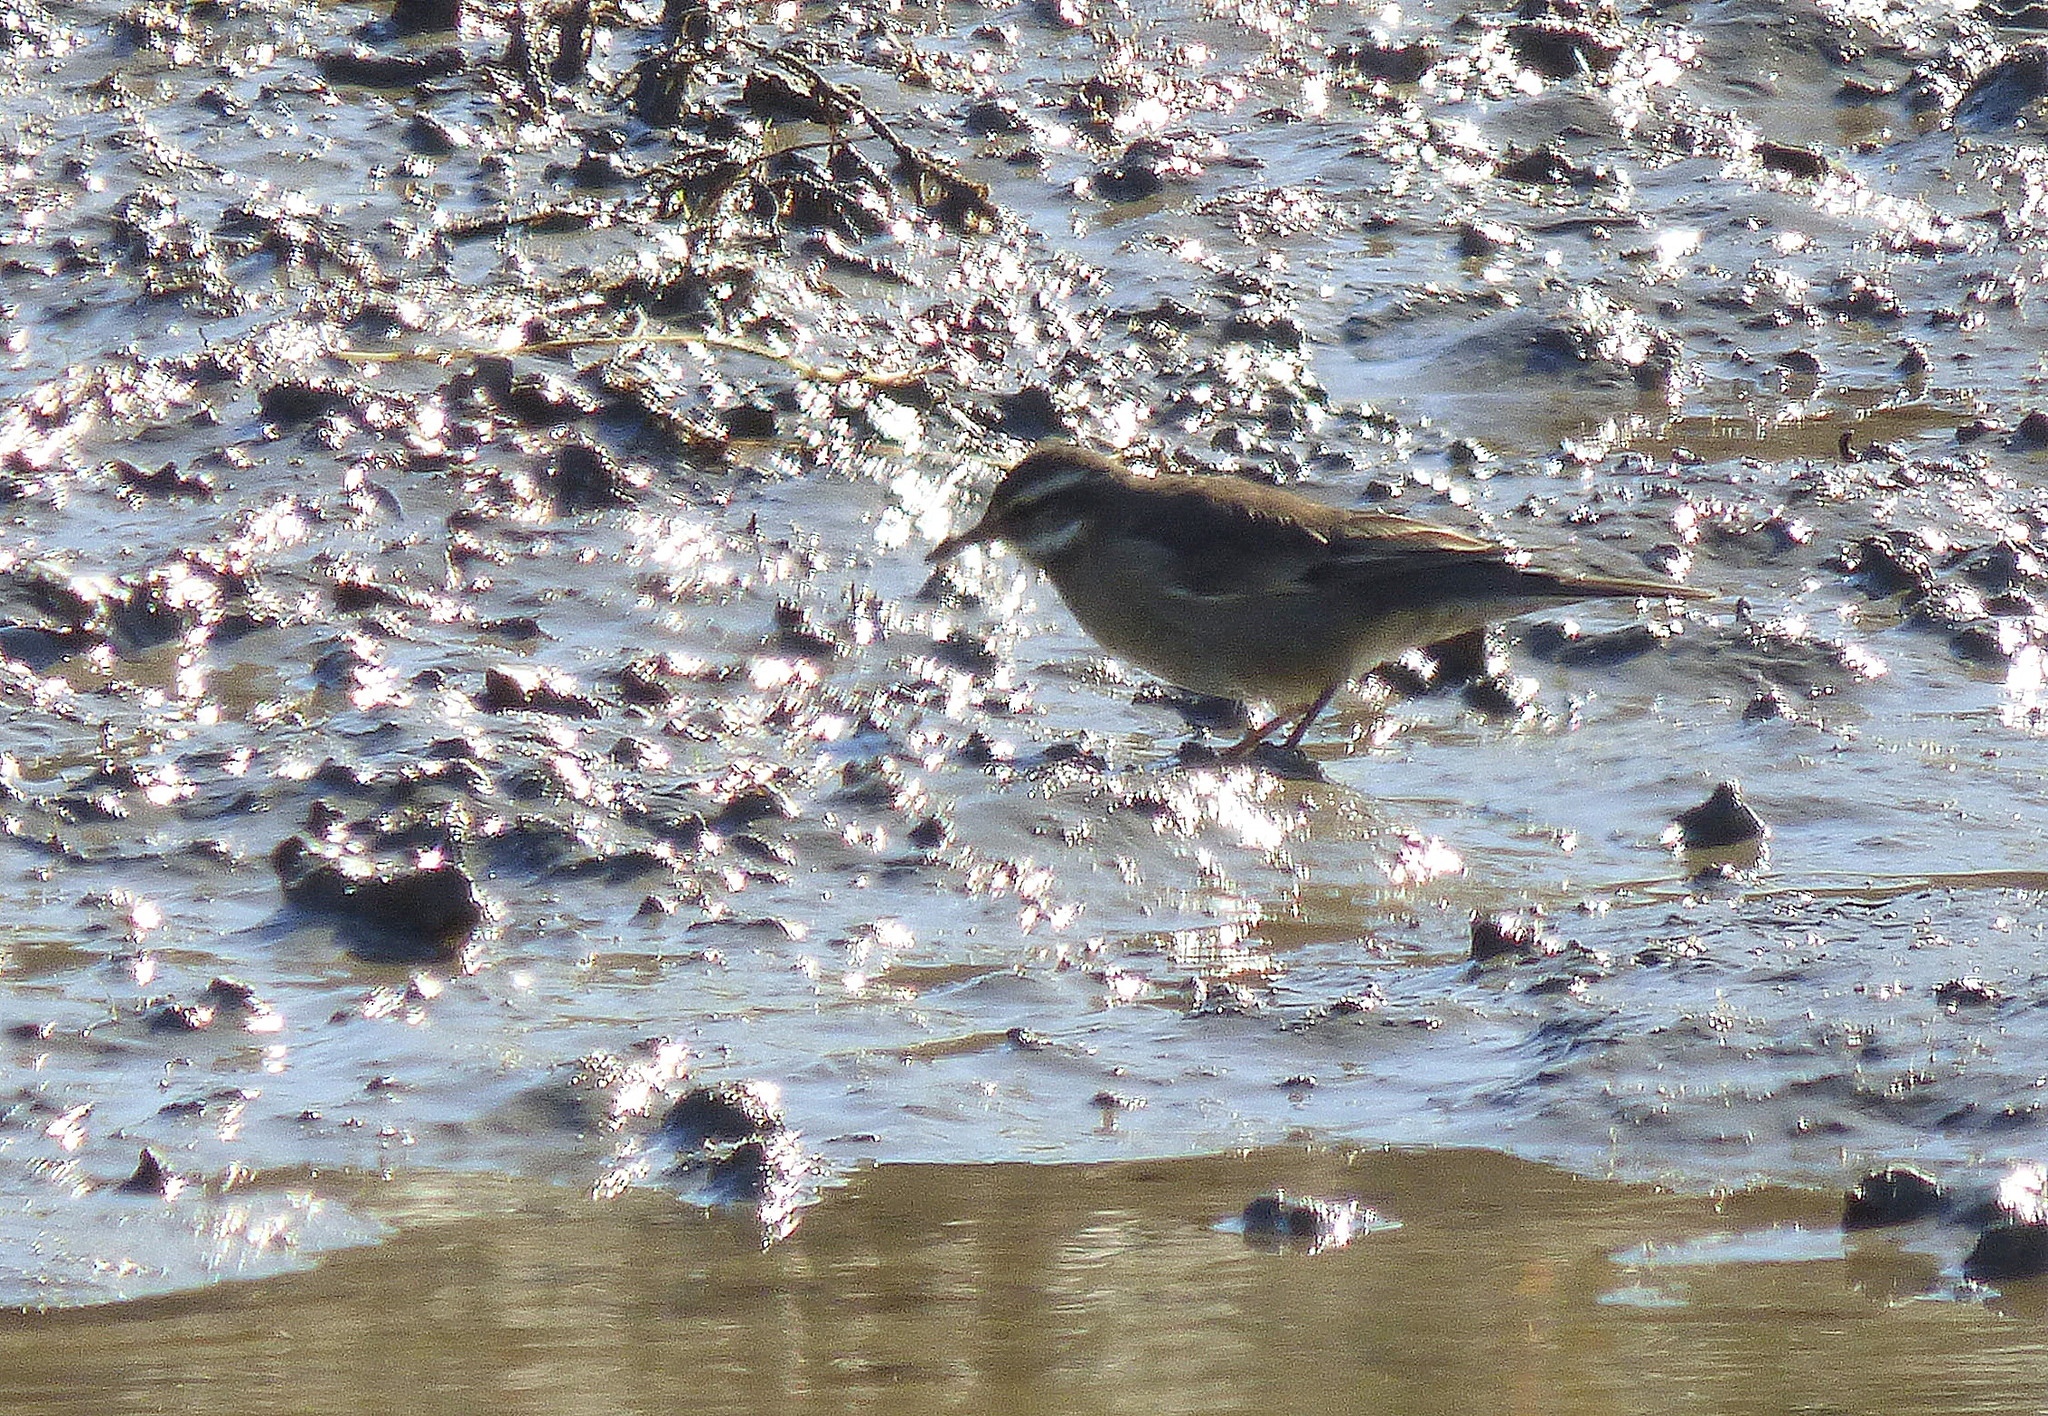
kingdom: Animalia
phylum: Chordata
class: Aves
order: Passeriformes
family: Furnariidae
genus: Cinclodes
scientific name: Cinclodes fuscus
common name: Buff-winged cinclodes
